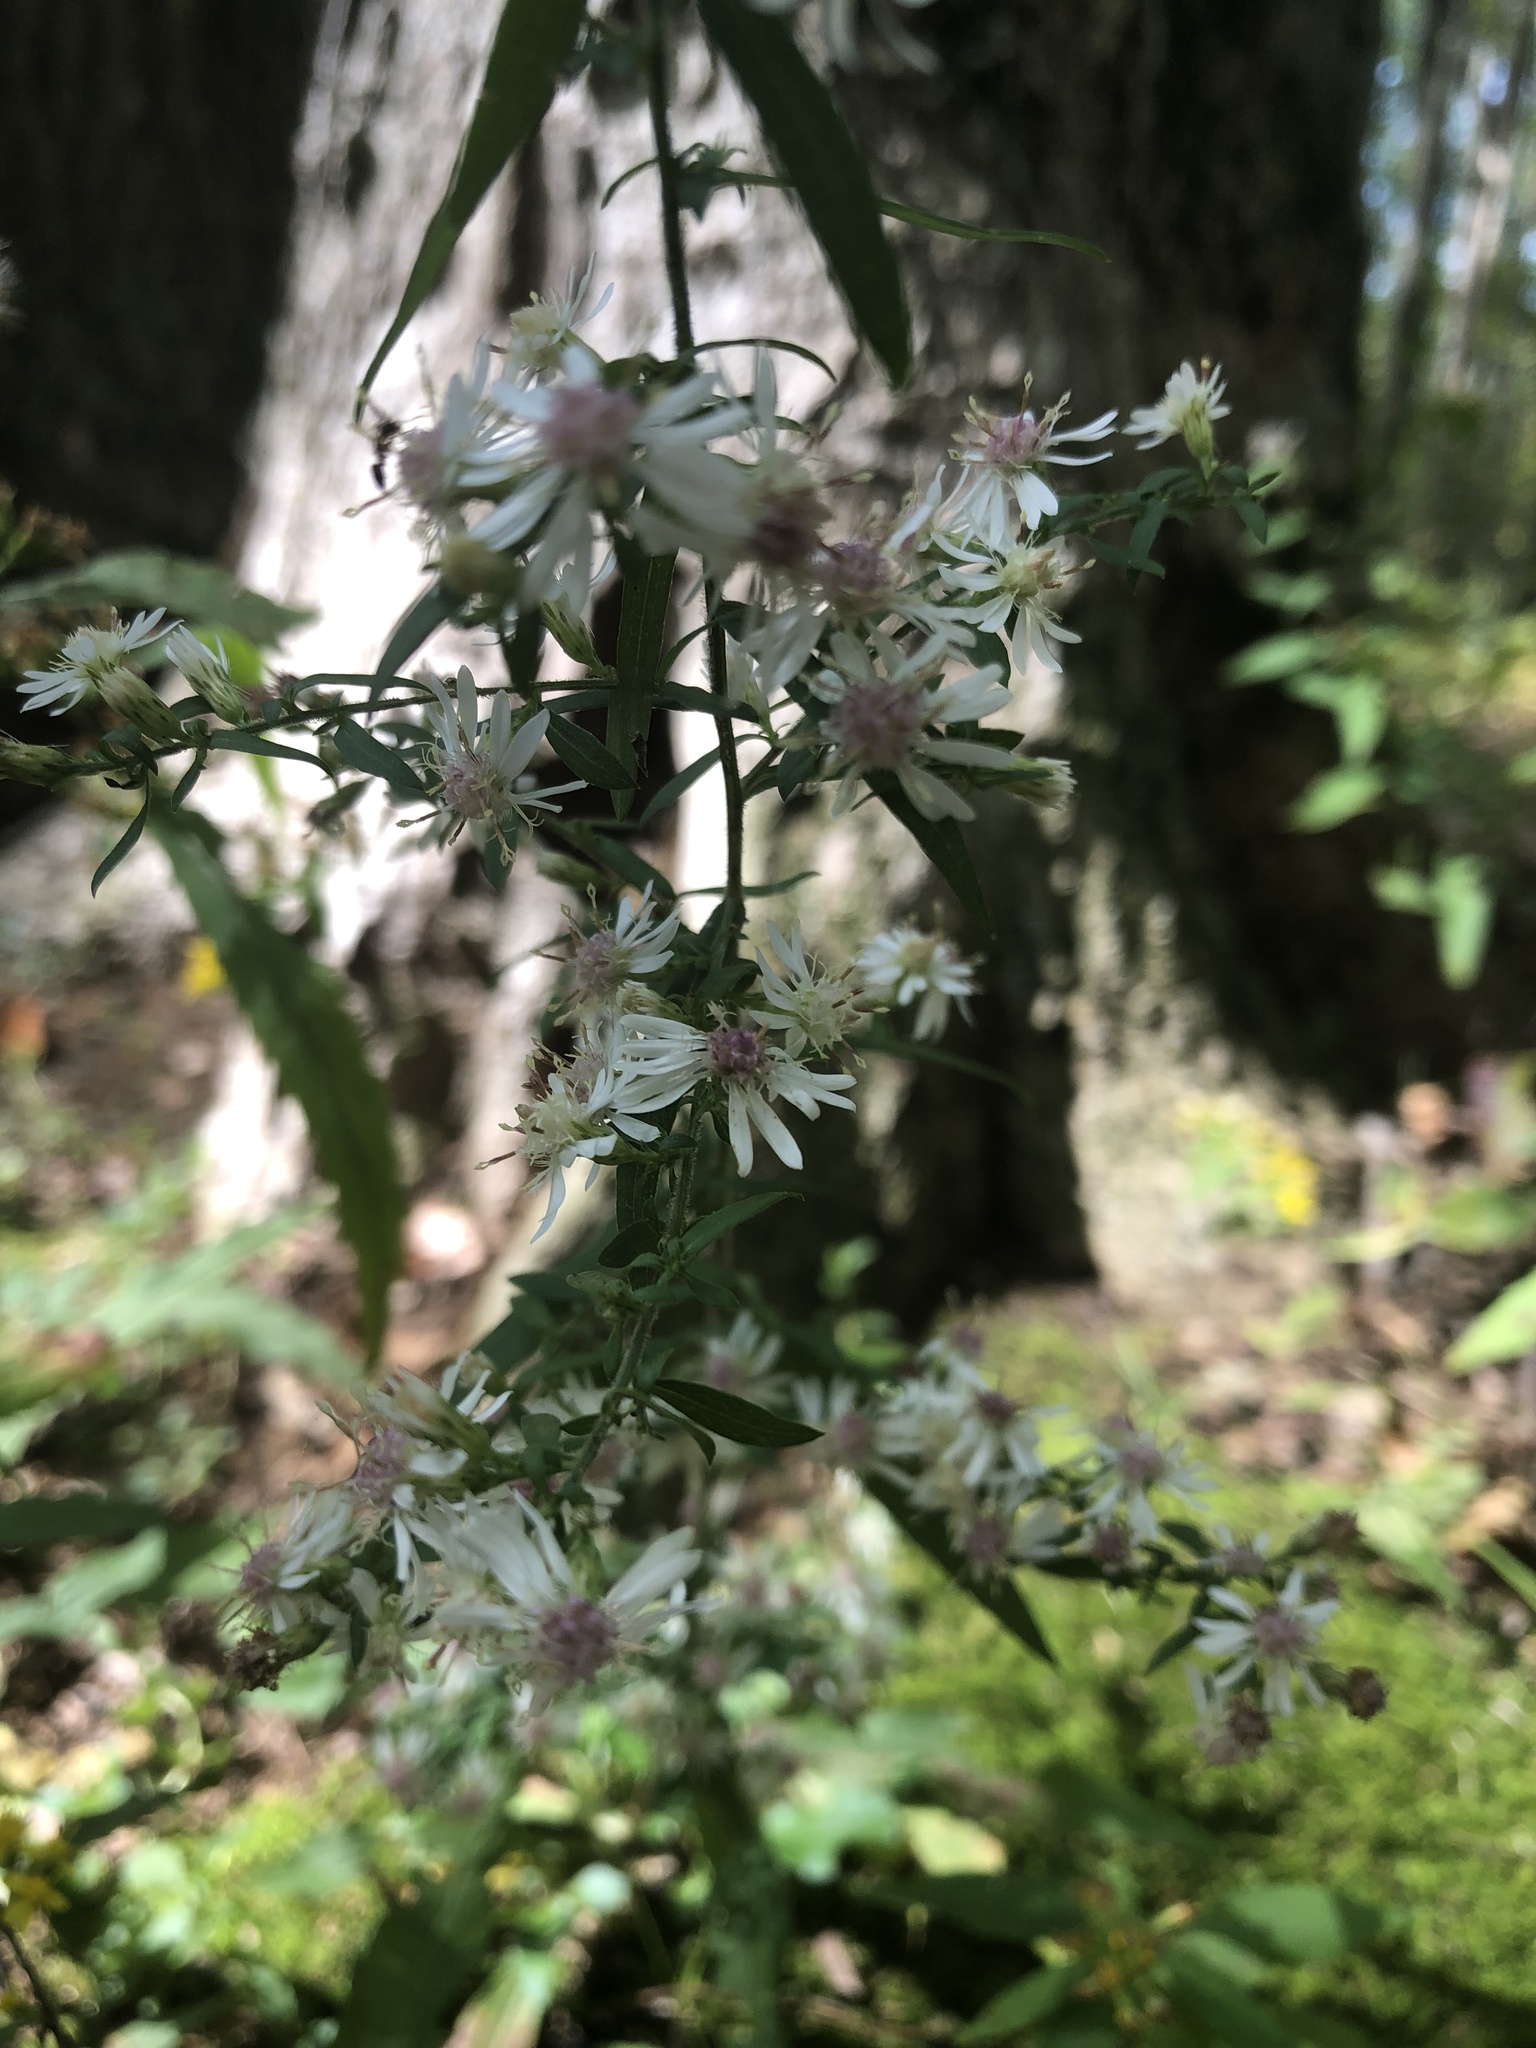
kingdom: Plantae
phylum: Tracheophyta
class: Magnoliopsida
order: Asterales
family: Asteraceae
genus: Symphyotrichum
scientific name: Symphyotrichum lateriflorum
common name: Calico aster
